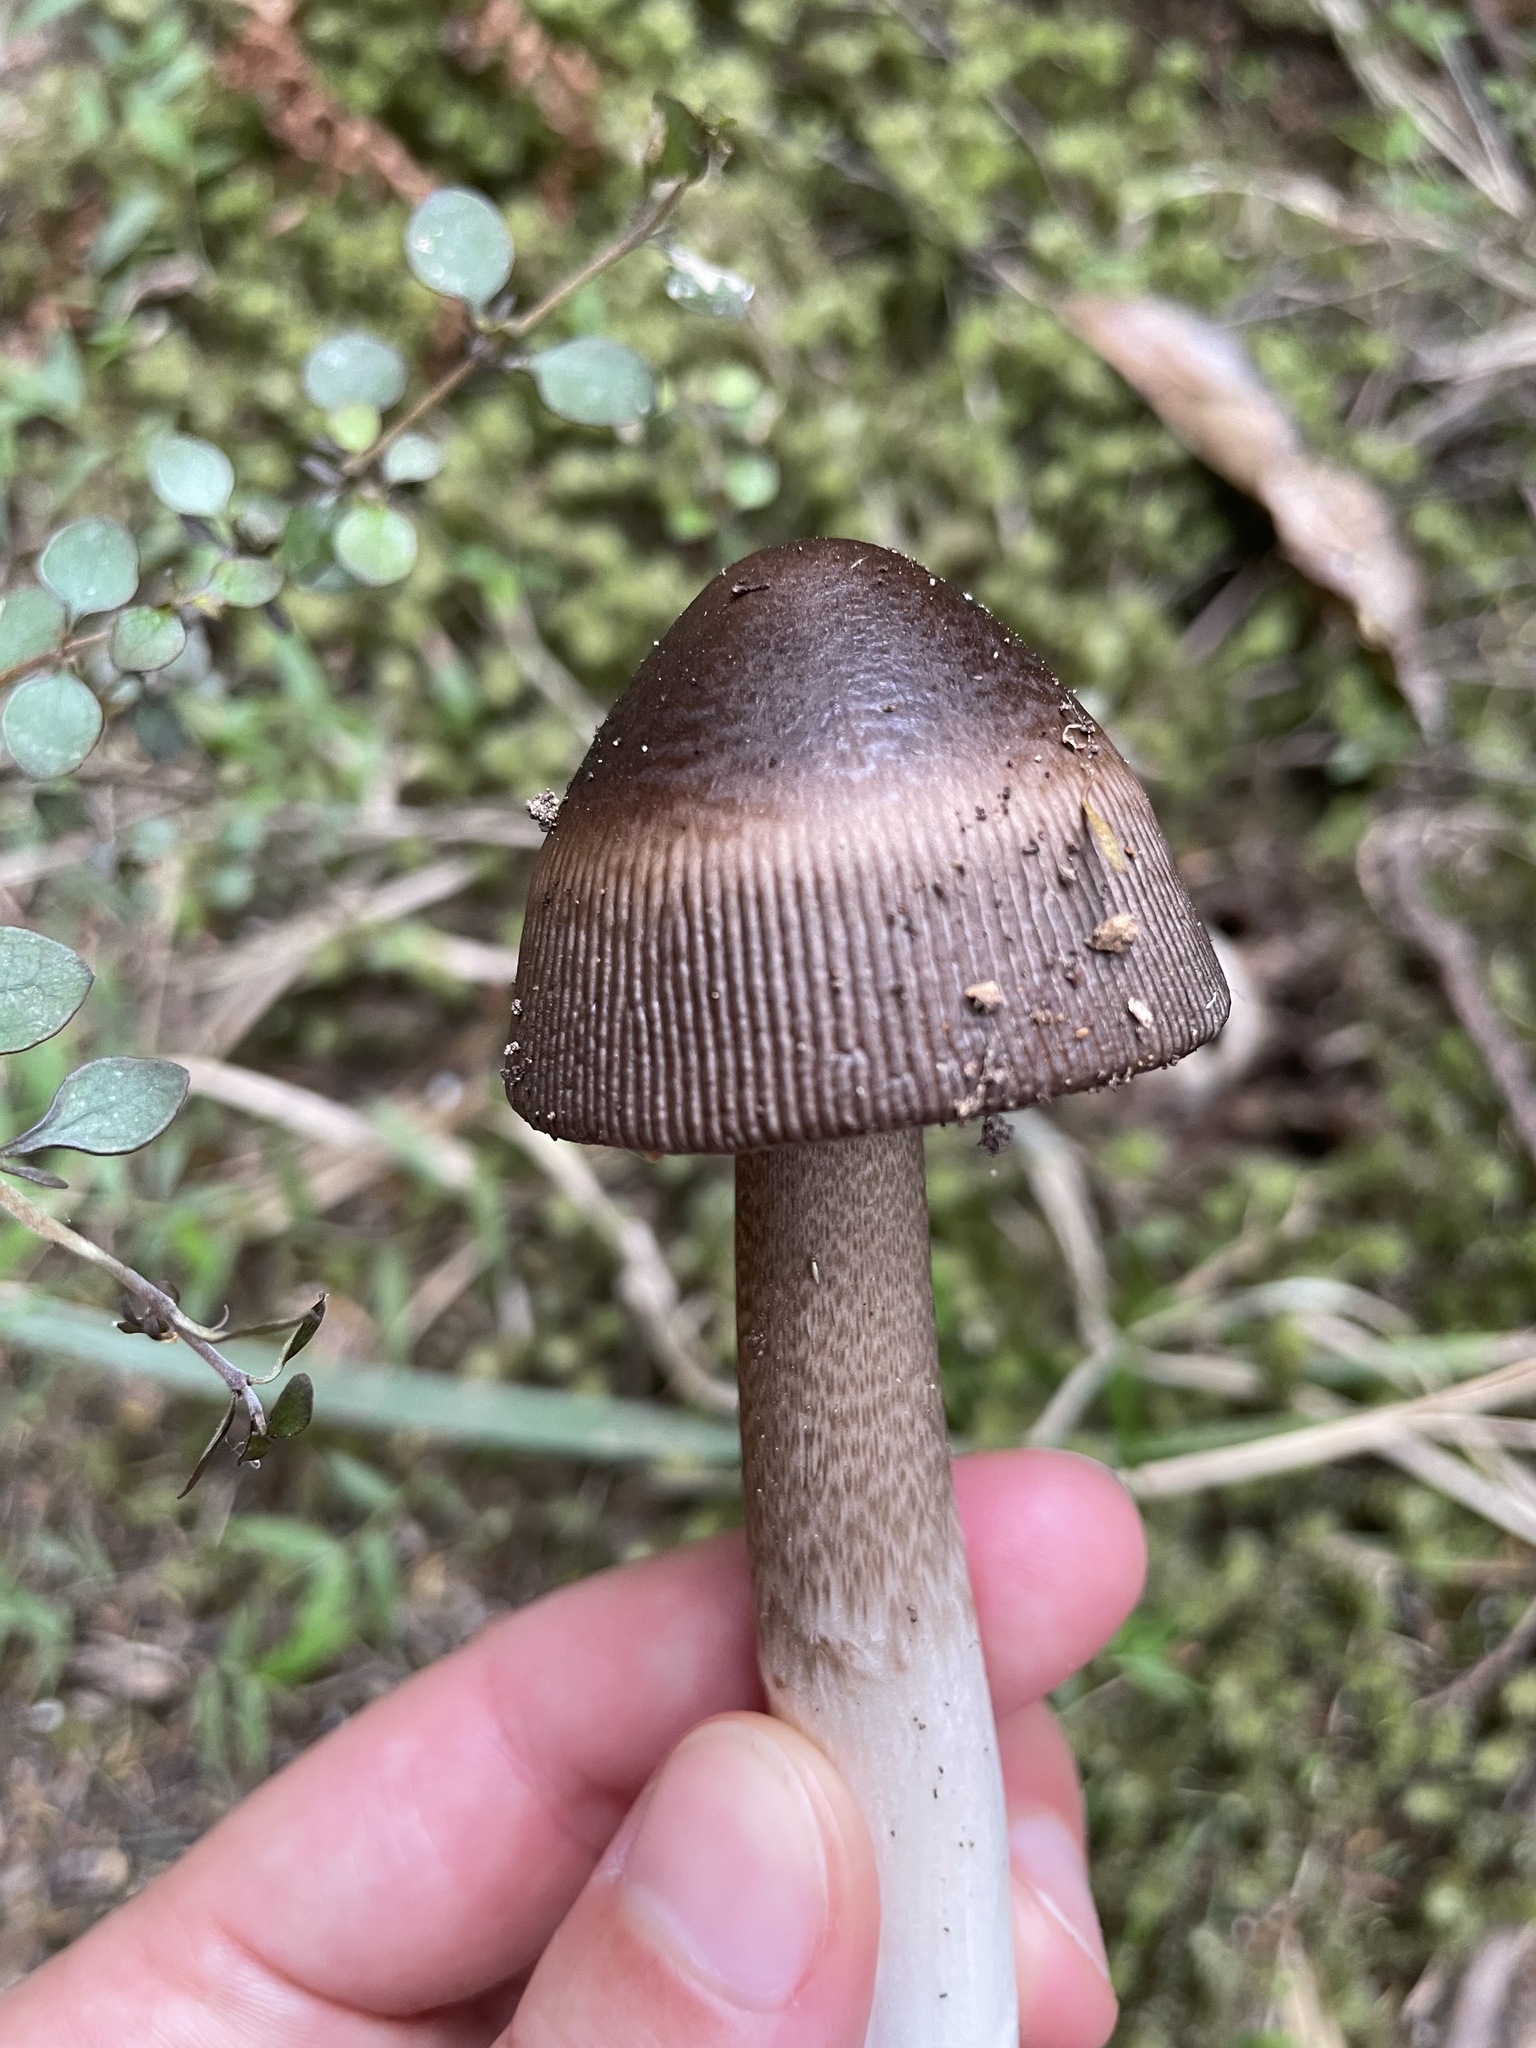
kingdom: Fungi
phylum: Basidiomycota
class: Agaricomycetes
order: Agaricales
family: Amanitaceae
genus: Amanita
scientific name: Amanita pekeoides
